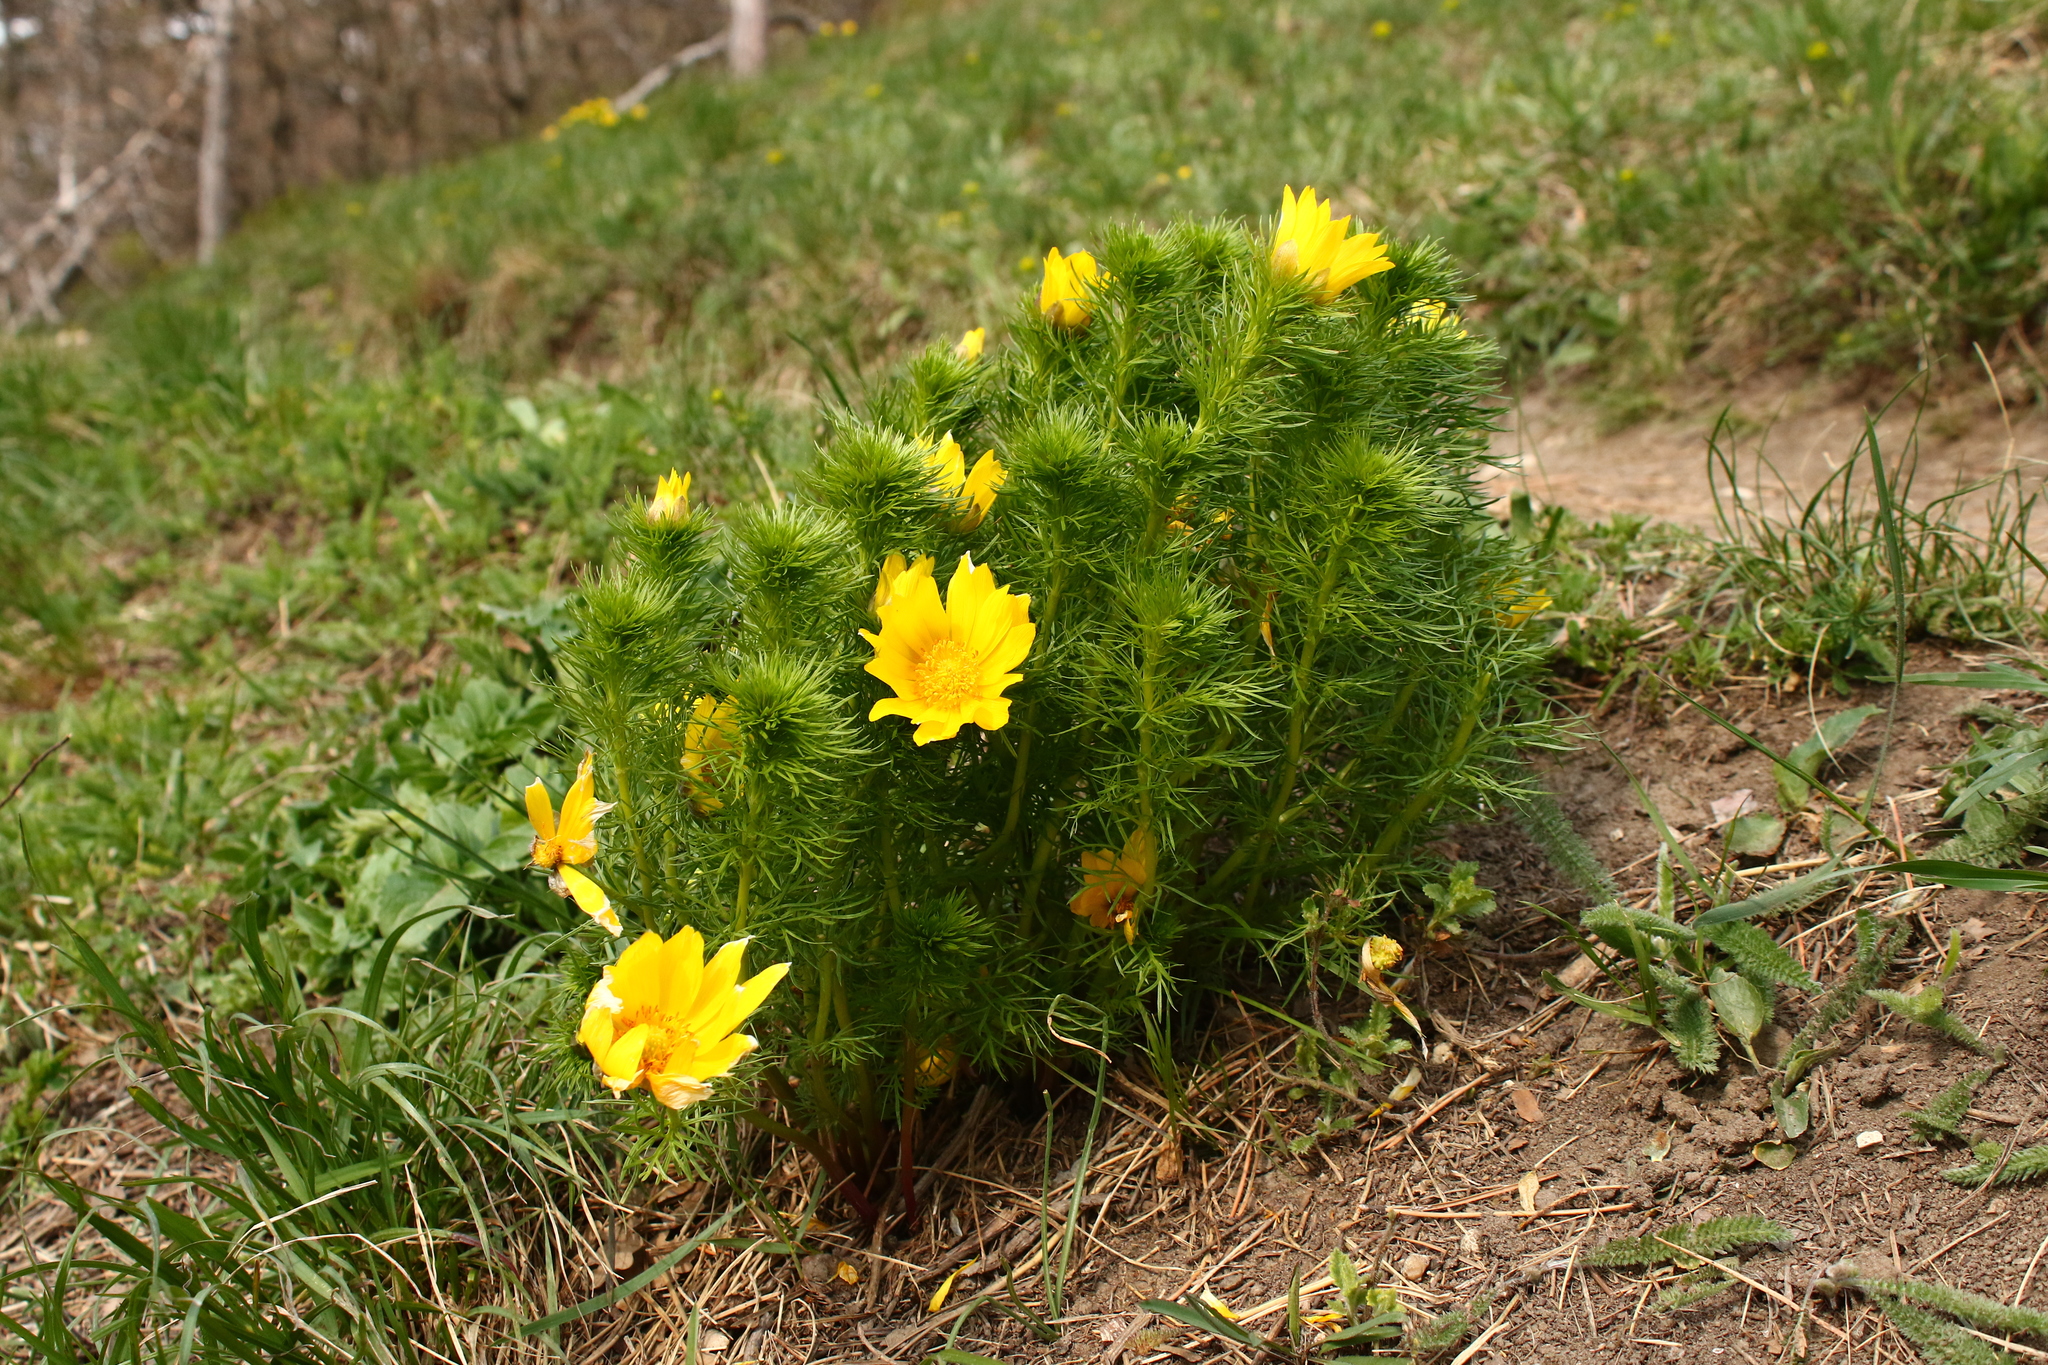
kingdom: Plantae
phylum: Tracheophyta
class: Magnoliopsida
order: Ranunculales
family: Ranunculaceae
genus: Adonis
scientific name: Adonis vernalis
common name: Yellow pheasants-eye
